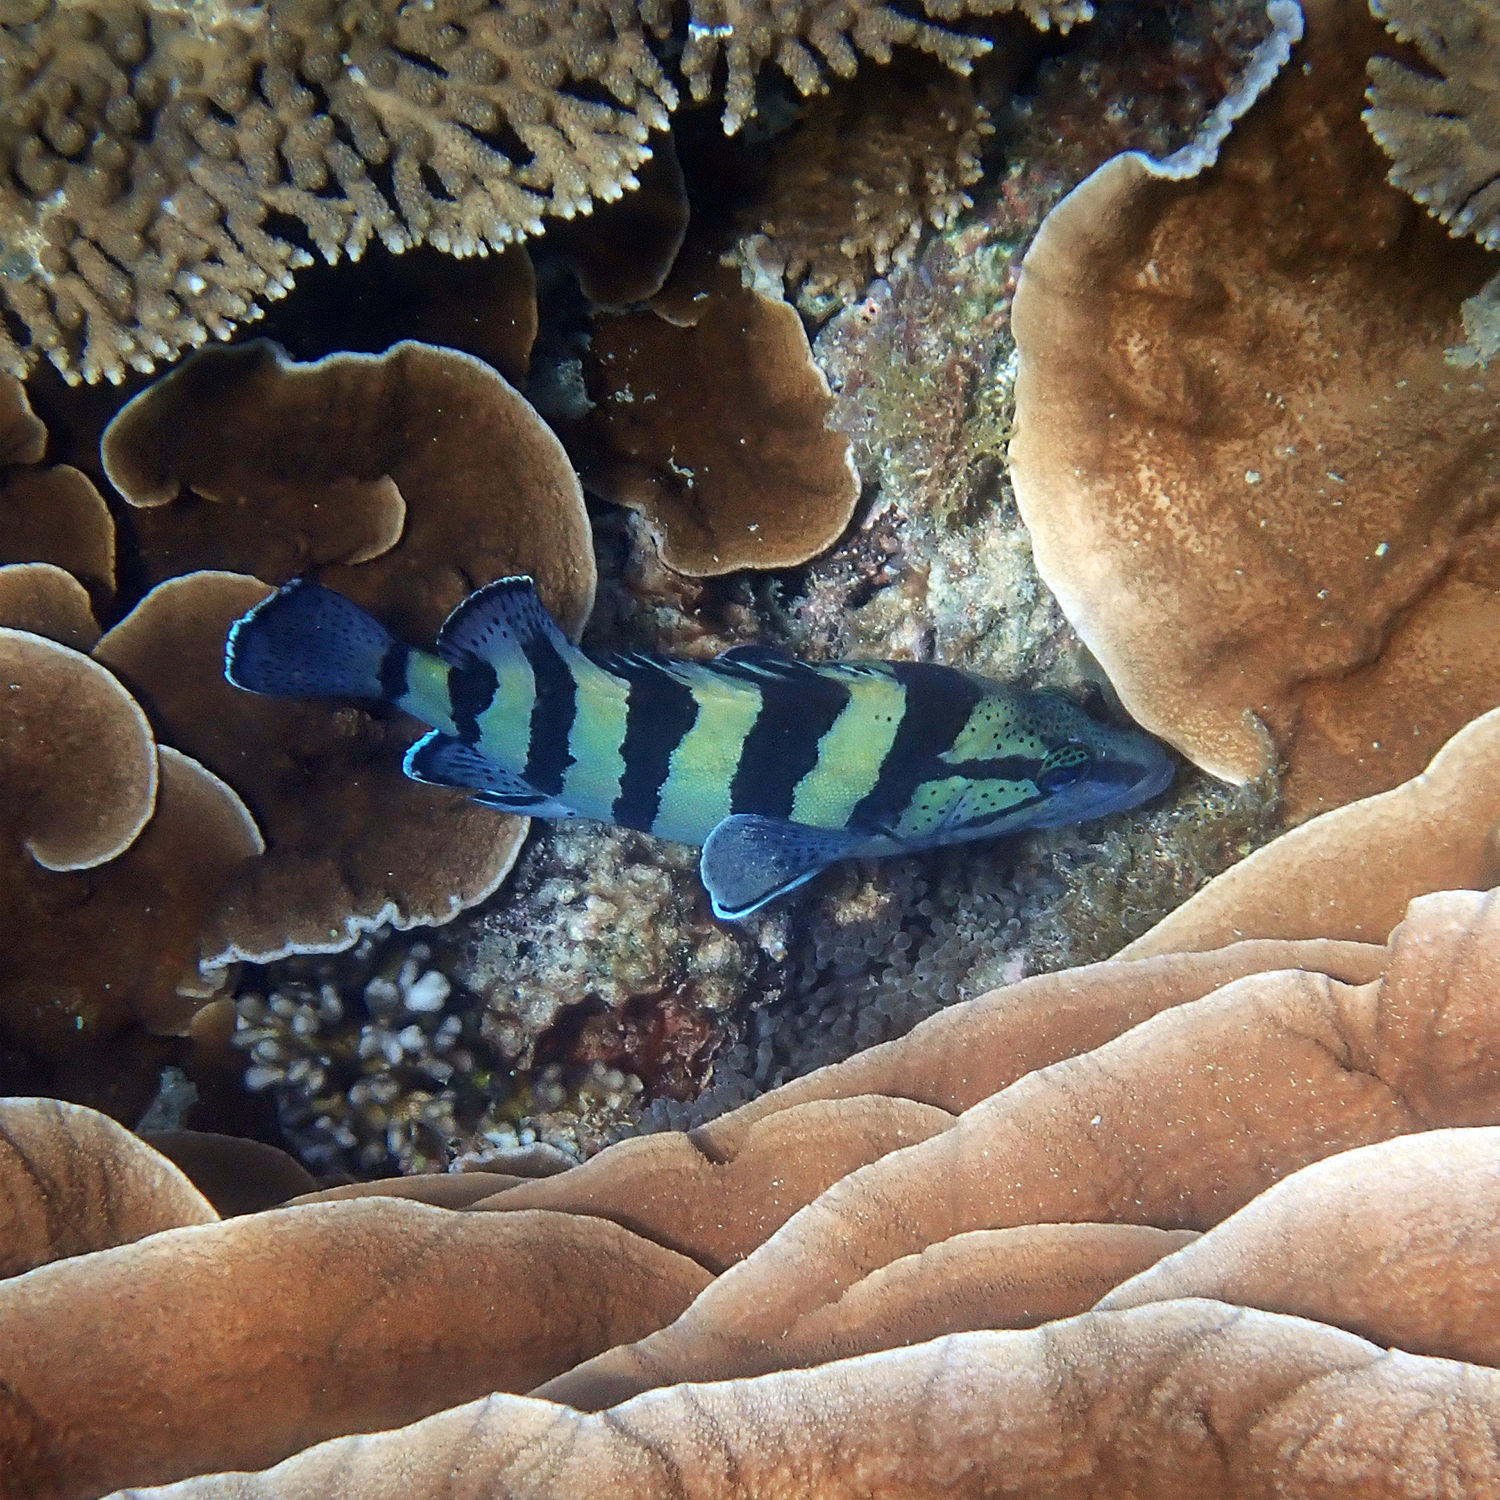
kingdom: Animalia
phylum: Chordata
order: Perciformes
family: Serranidae
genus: Acanthistius
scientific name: Acanthistius cinctus
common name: Girdled rock cod
